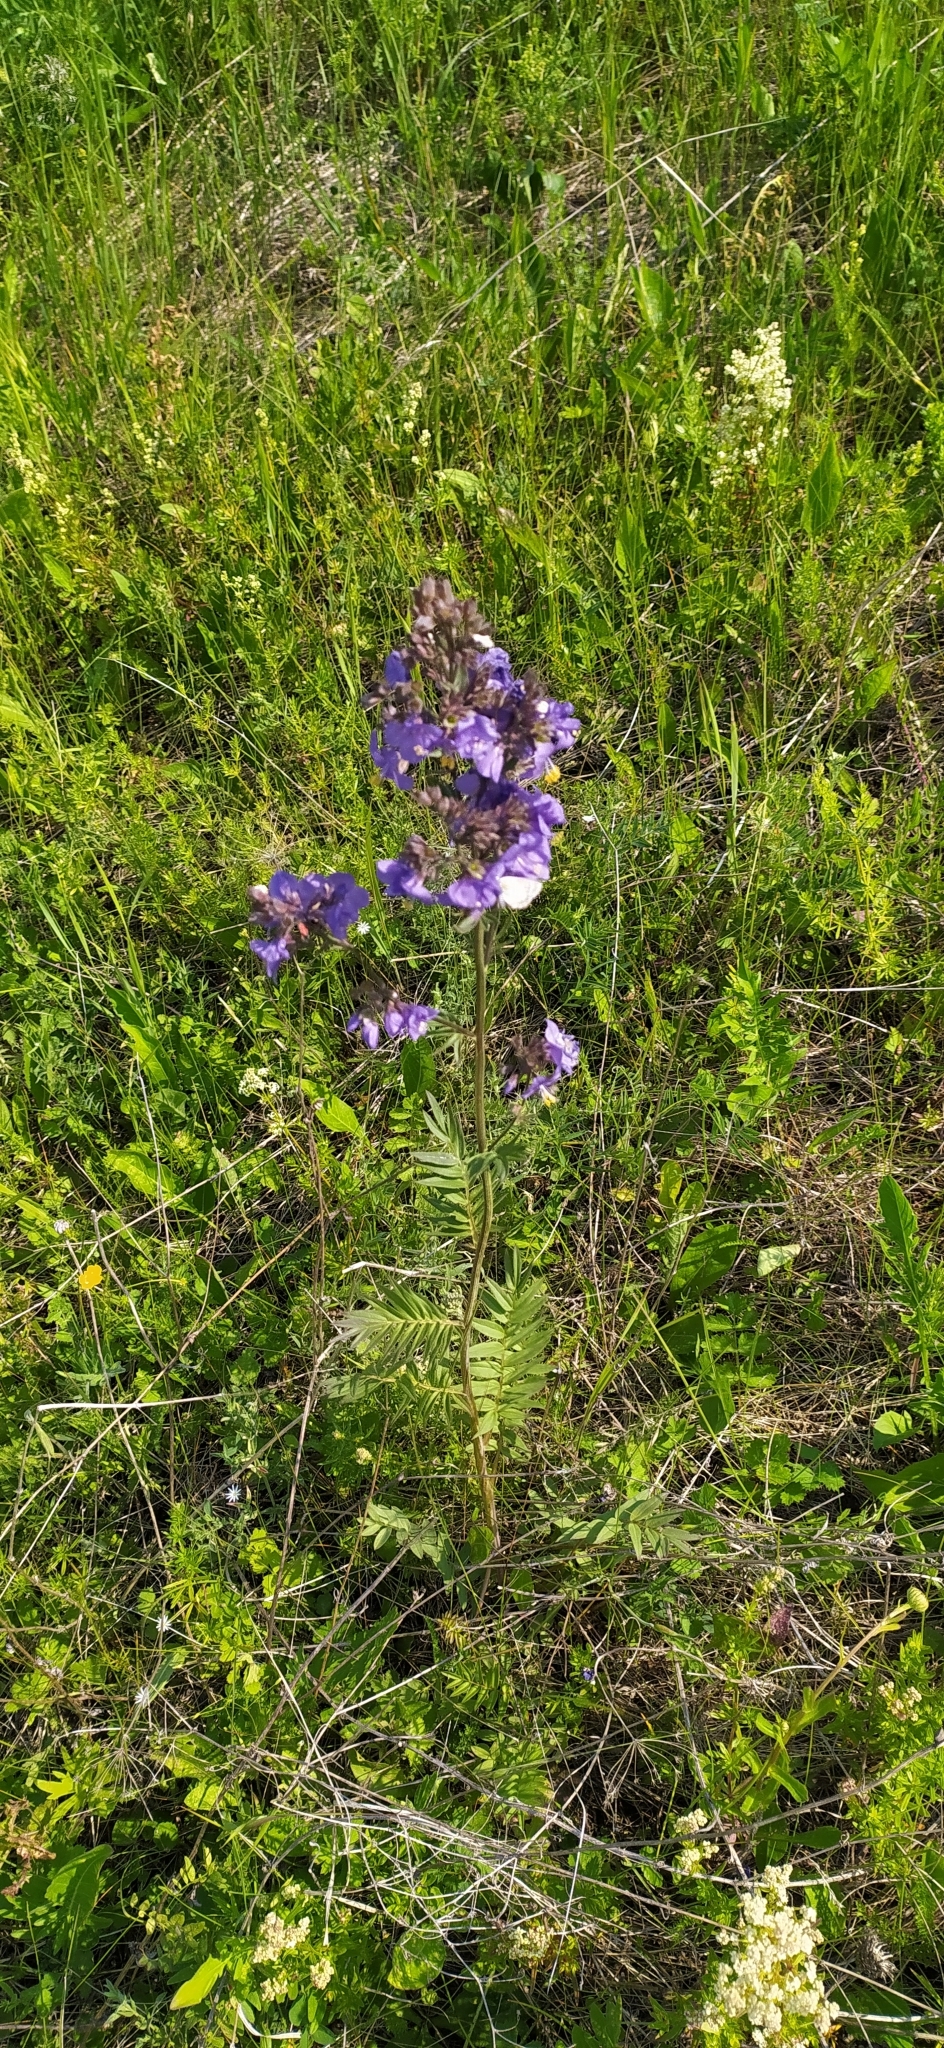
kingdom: Plantae
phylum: Tracheophyta
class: Magnoliopsida
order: Ericales
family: Polemoniaceae
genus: Polemonium
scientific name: Polemonium caeruleum
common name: Jacob's-ladder
